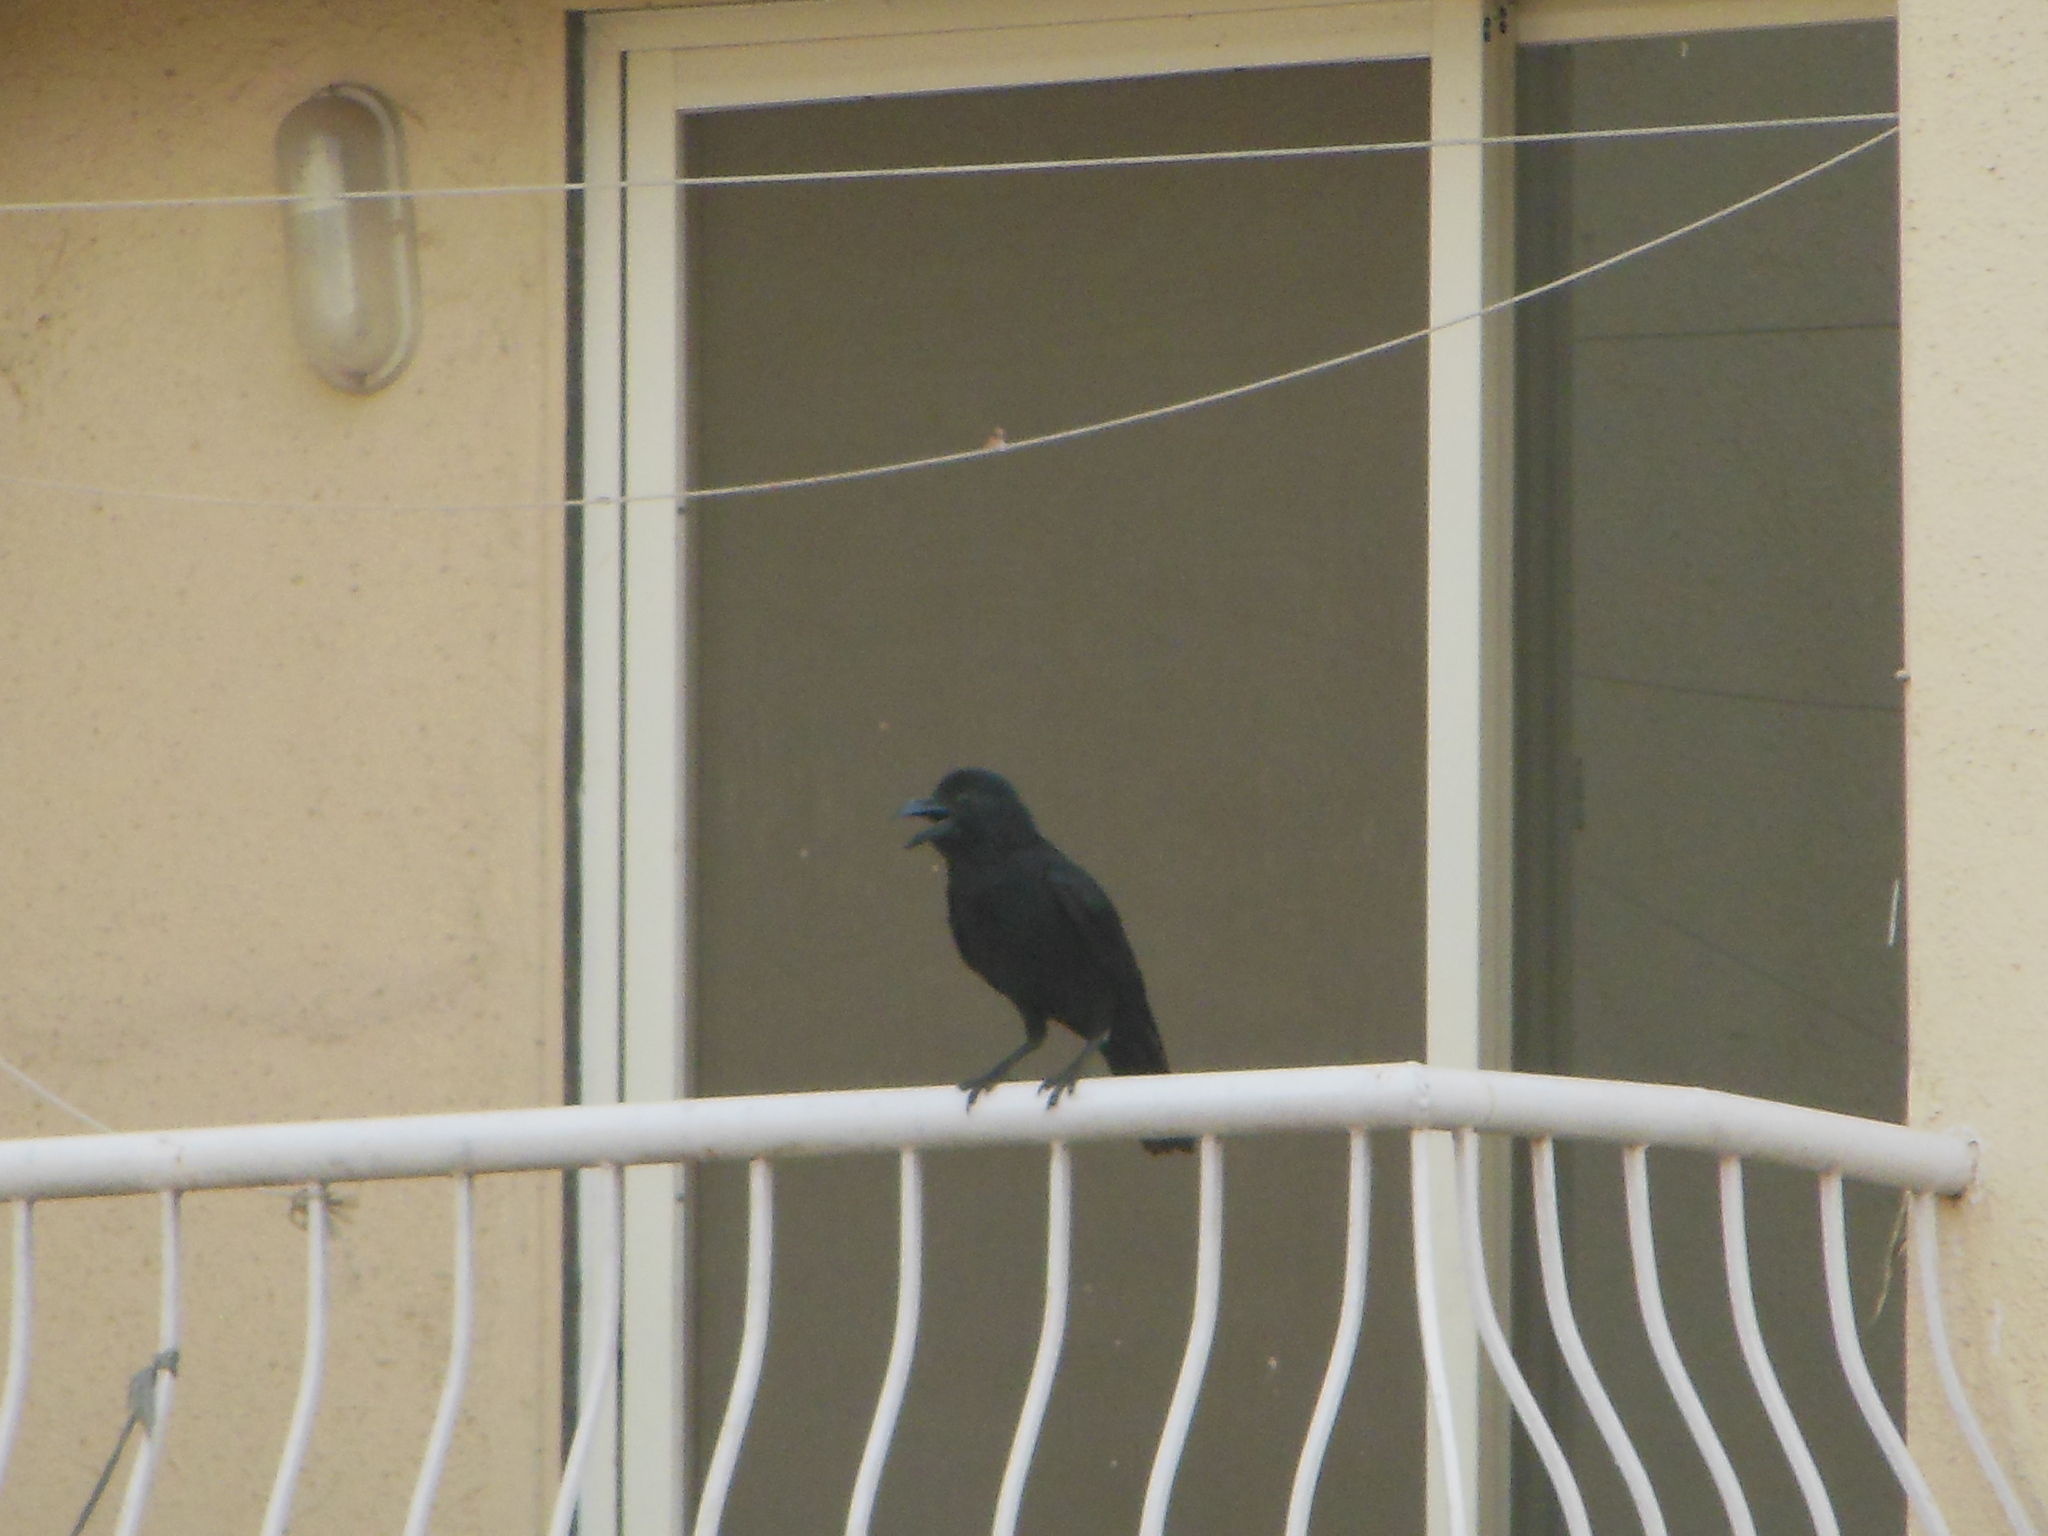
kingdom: Animalia
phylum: Chordata
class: Aves
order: Passeriformes
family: Corvidae
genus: Corvus
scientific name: Corvus macrorhynchos
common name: Large-billed crow
